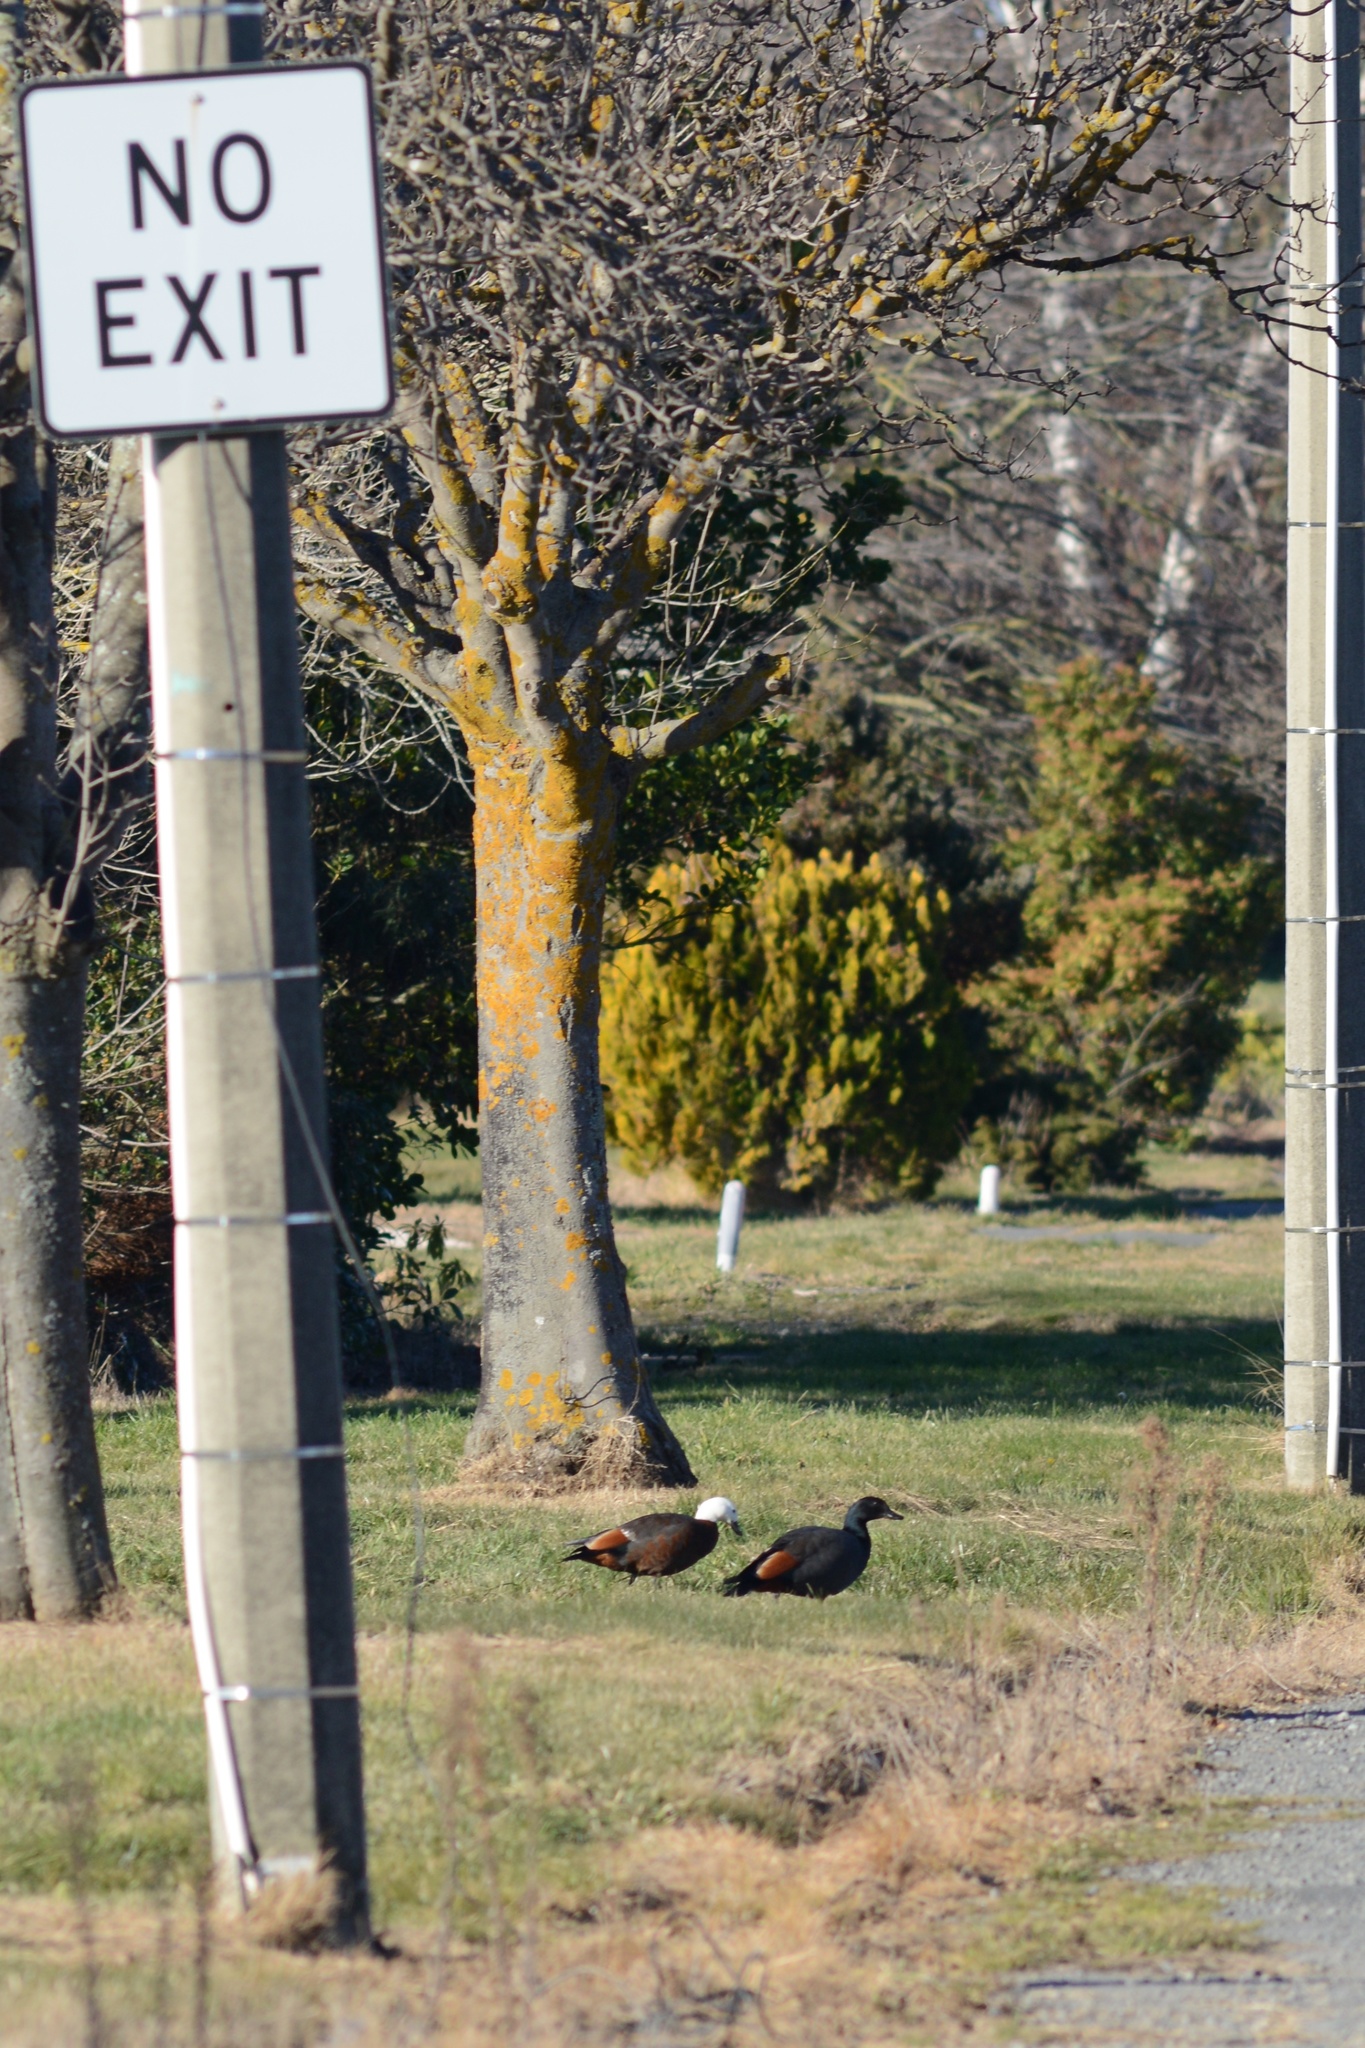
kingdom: Animalia
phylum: Chordata
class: Aves
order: Anseriformes
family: Anatidae
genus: Tadorna
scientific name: Tadorna variegata
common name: Paradise shelduck
